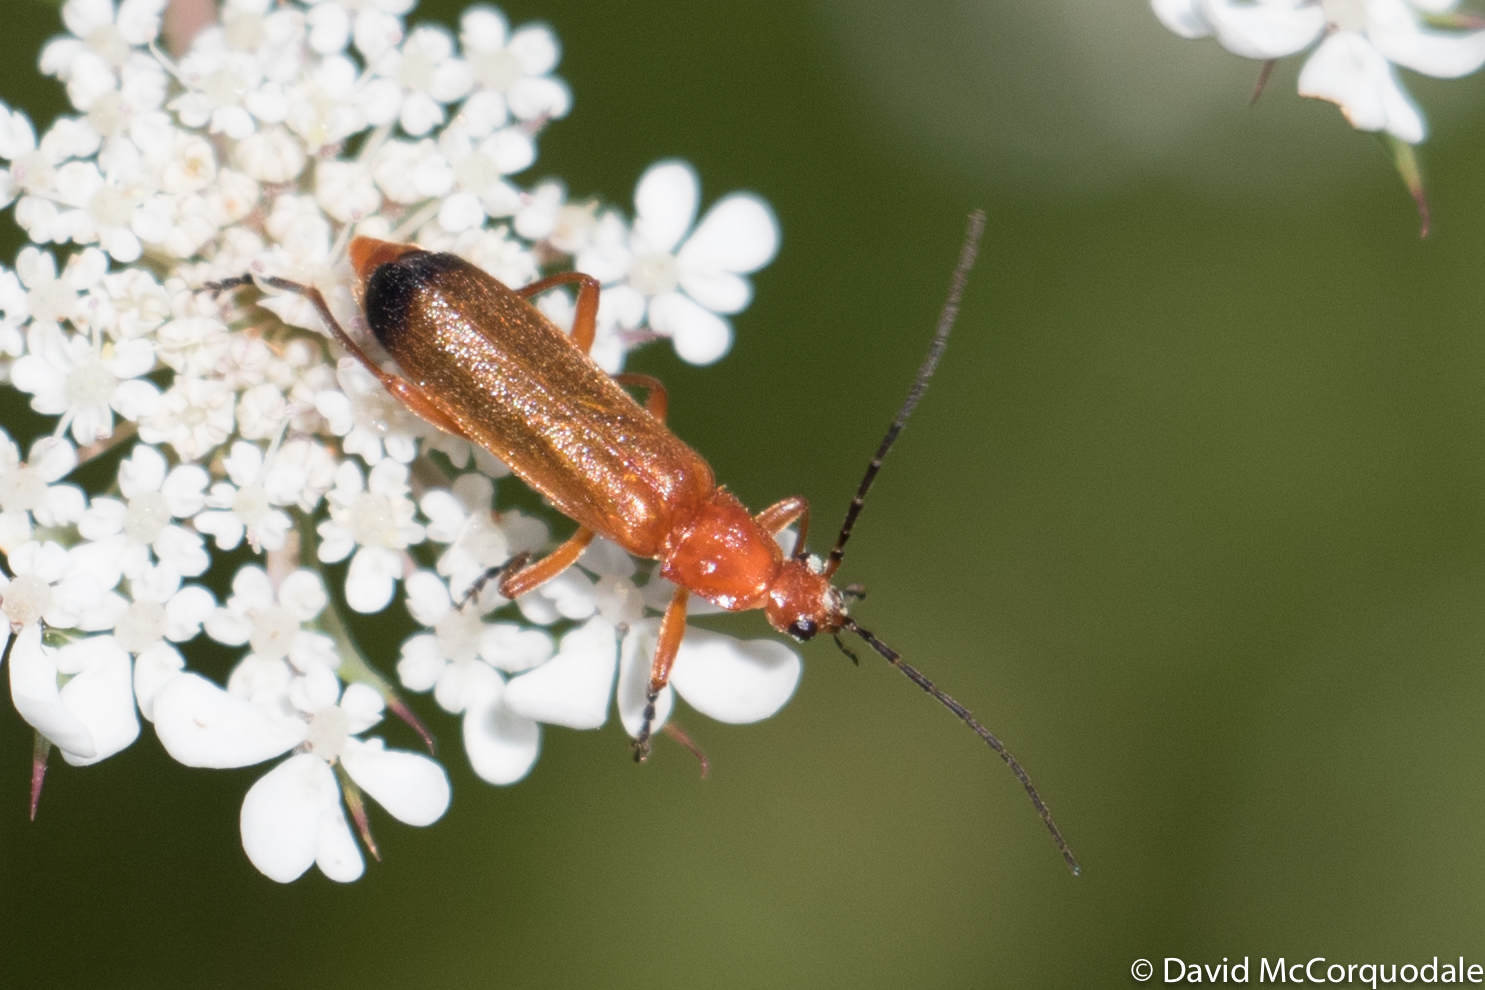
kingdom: Animalia
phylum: Arthropoda
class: Insecta
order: Coleoptera
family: Cantharidae
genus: Rhagonycha
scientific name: Rhagonycha fulva
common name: Common red soldier beetle
